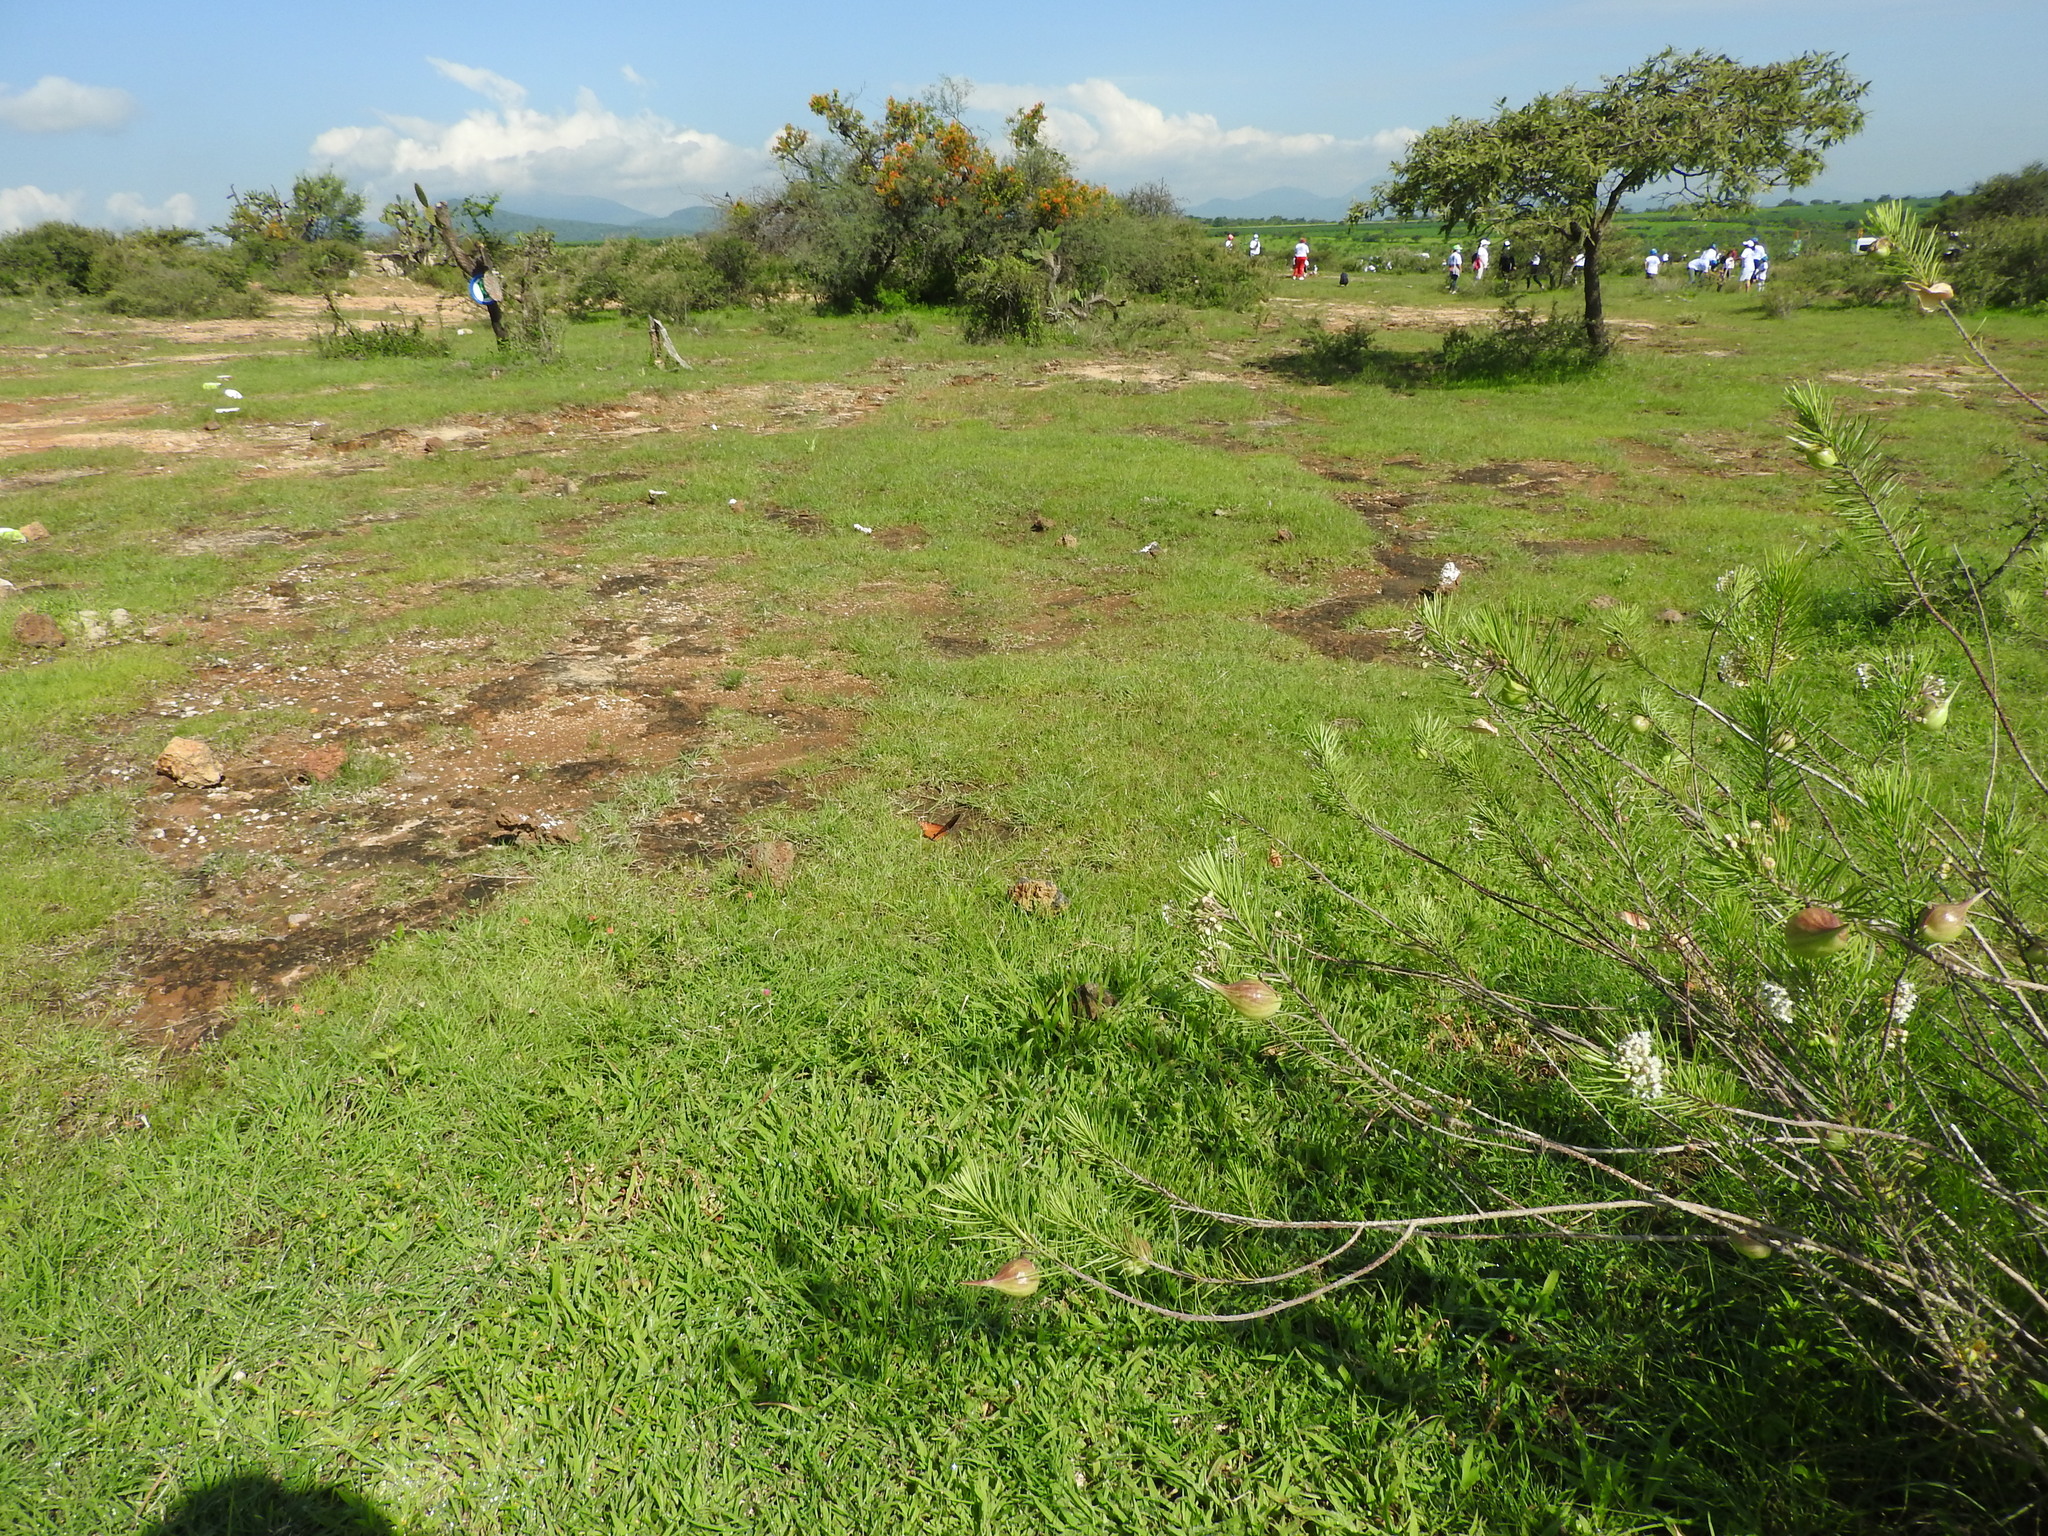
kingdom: Animalia
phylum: Arthropoda
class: Insecta
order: Lepidoptera
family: Nymphalidae
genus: Danaus
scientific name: Danaus gilippus
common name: Queen
